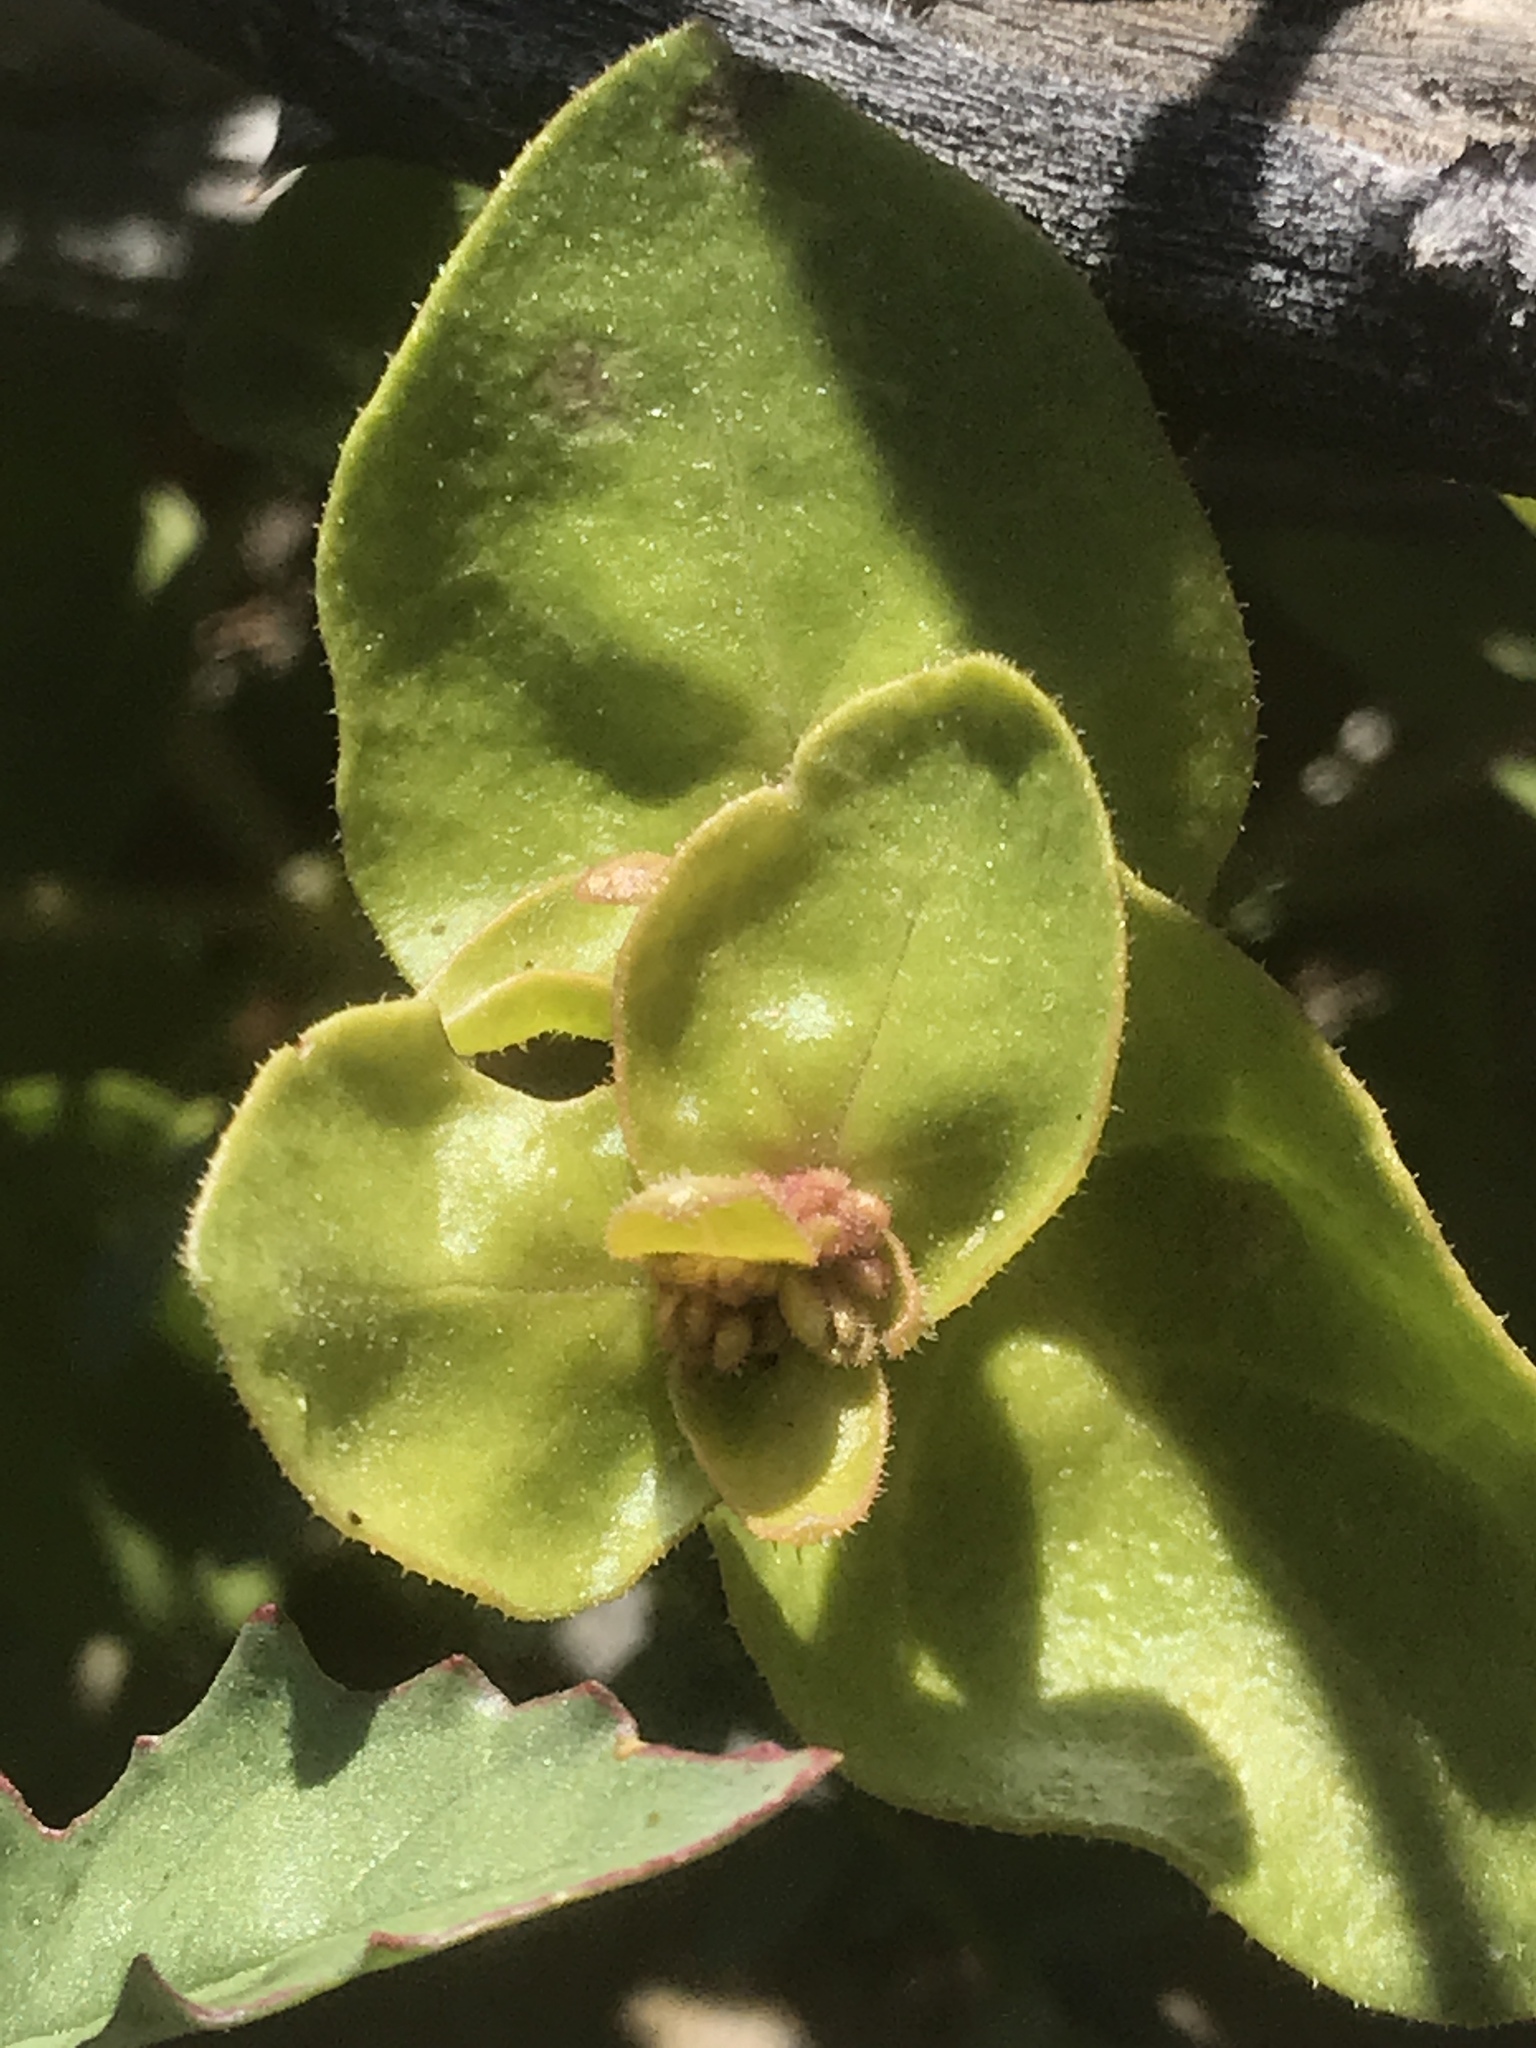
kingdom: Plantae
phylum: Tracheophyta
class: Magnoliopsida
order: Caryophyllales
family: Nyctaginaceae
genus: Mirabilis
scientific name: Mirabilis laevis
